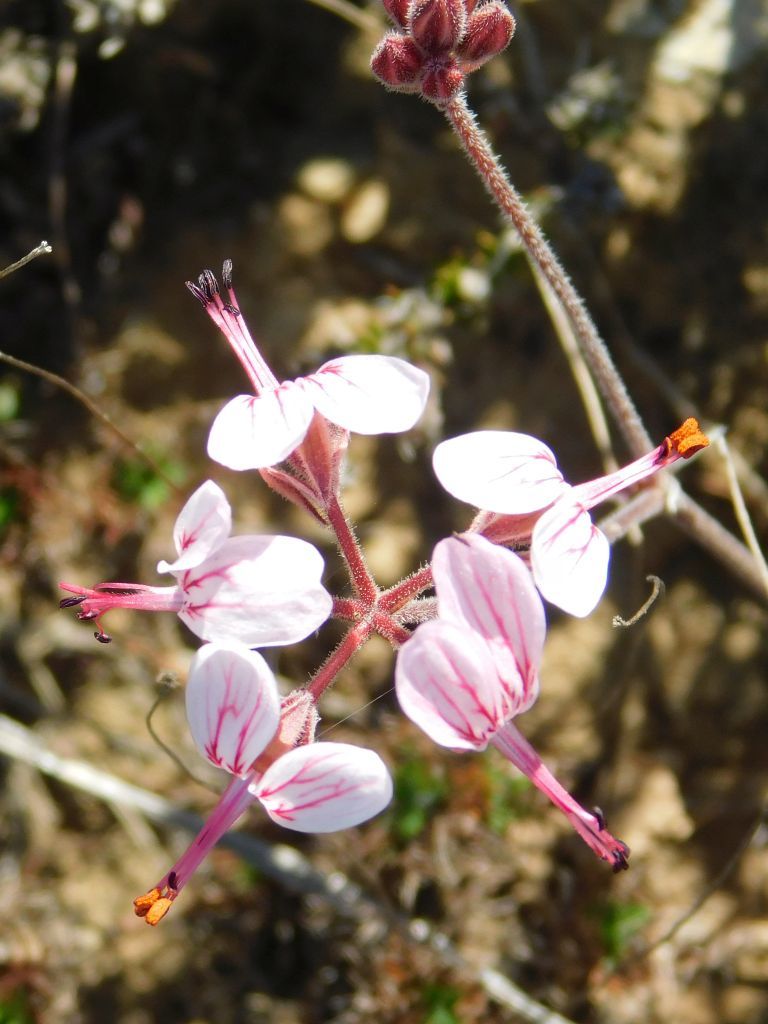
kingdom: Plantae
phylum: Tracheophyta
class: Magnoliopsida
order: Geraniales
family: Geraniaceae
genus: Pelargonium
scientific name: Pelargonium dipetalum
